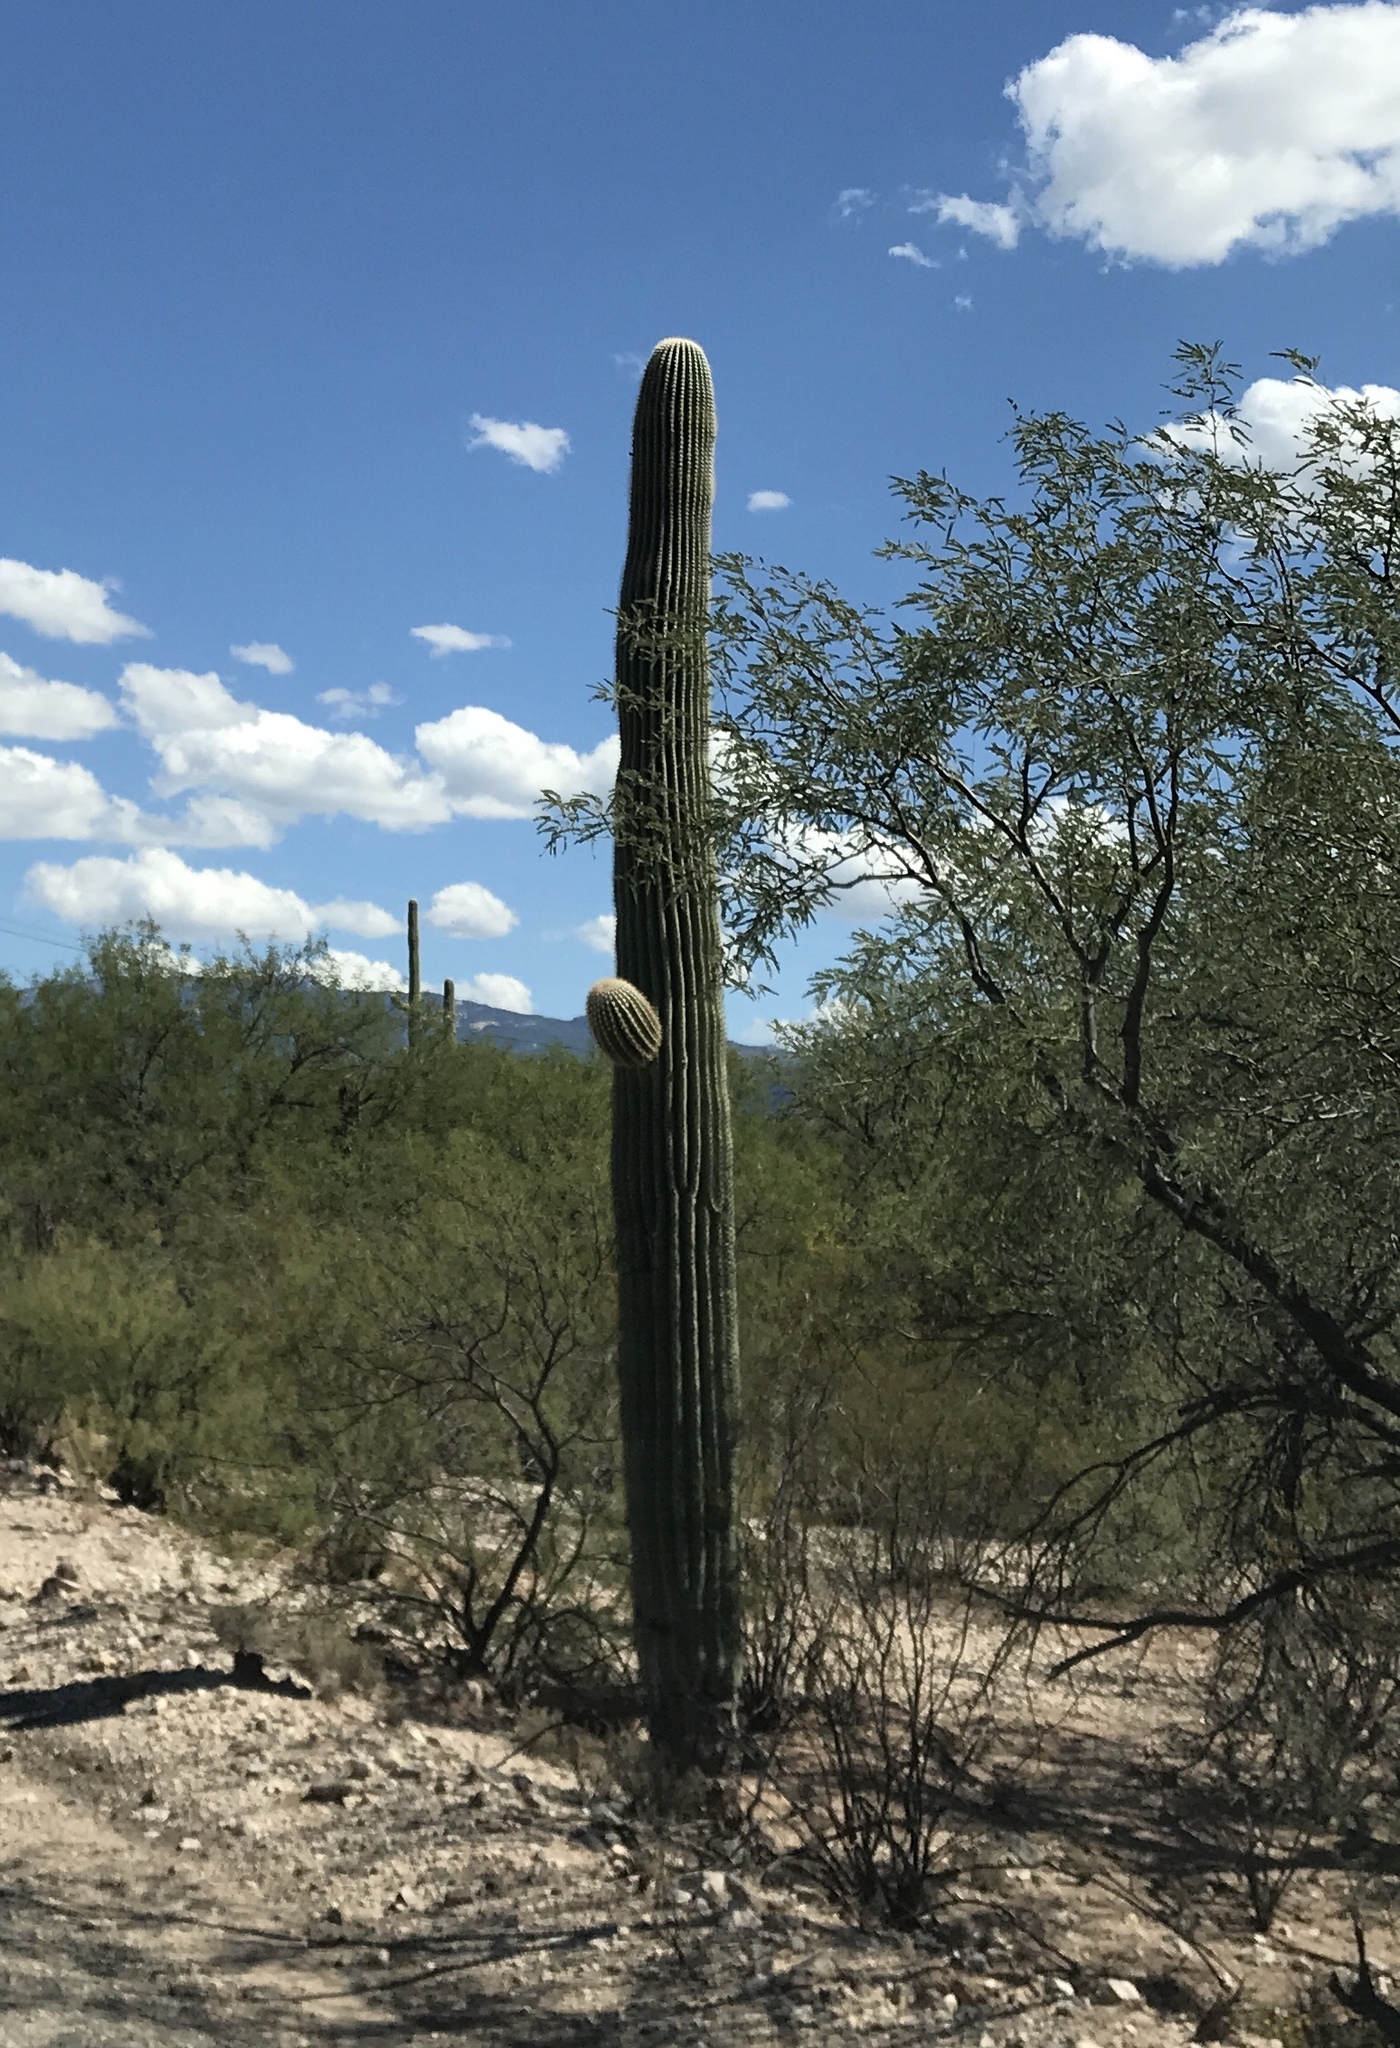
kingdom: Plantae
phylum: Tracheophyta
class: Magnoliopsida
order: Caryophyllales
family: Cactaceae
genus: Carnegiea
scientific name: Carnegiea gigantea
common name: Saguaro
